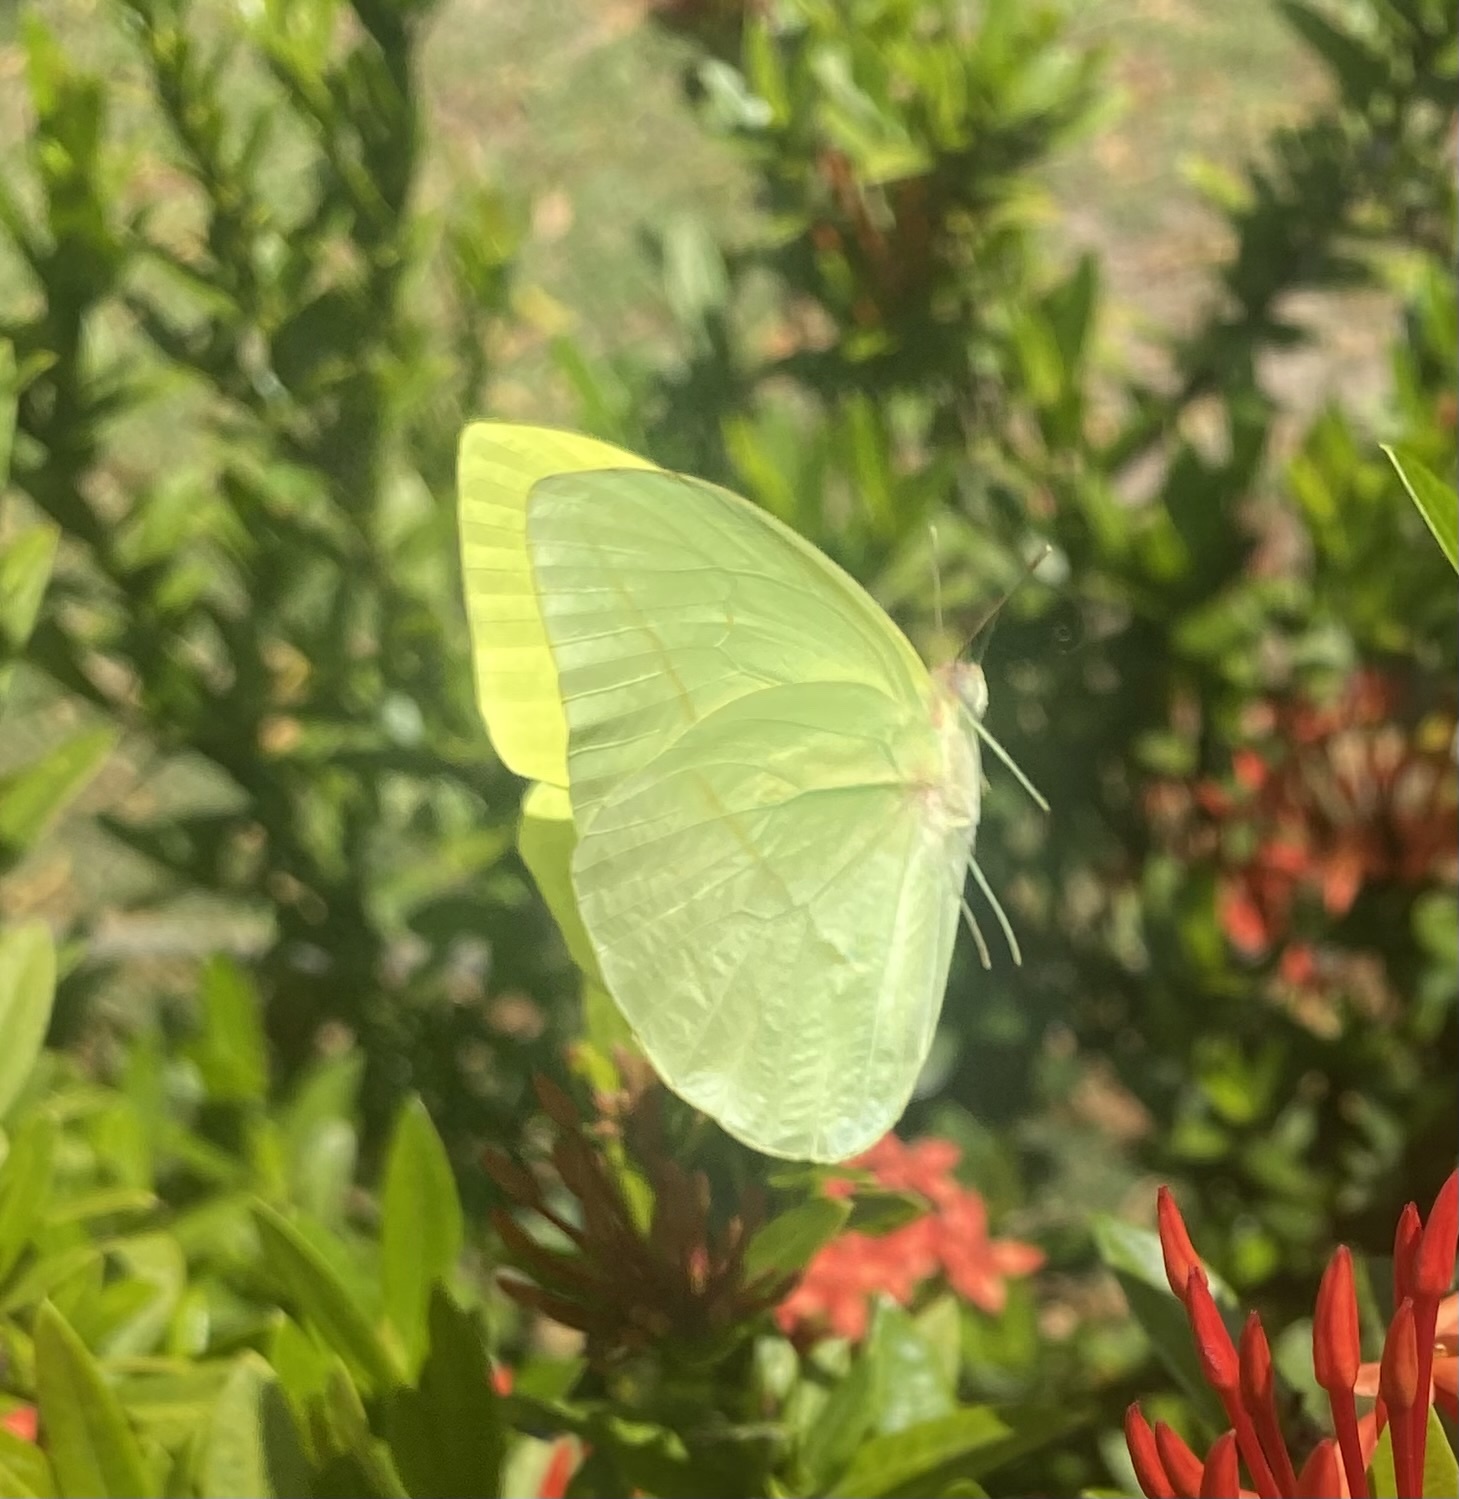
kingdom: Animalia
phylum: Arthropoda
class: Insecta
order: Lepidoptera
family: Pieridae
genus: Rhabdodryas
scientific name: Rhabdodryas trite
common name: Straight-lined sulphur
